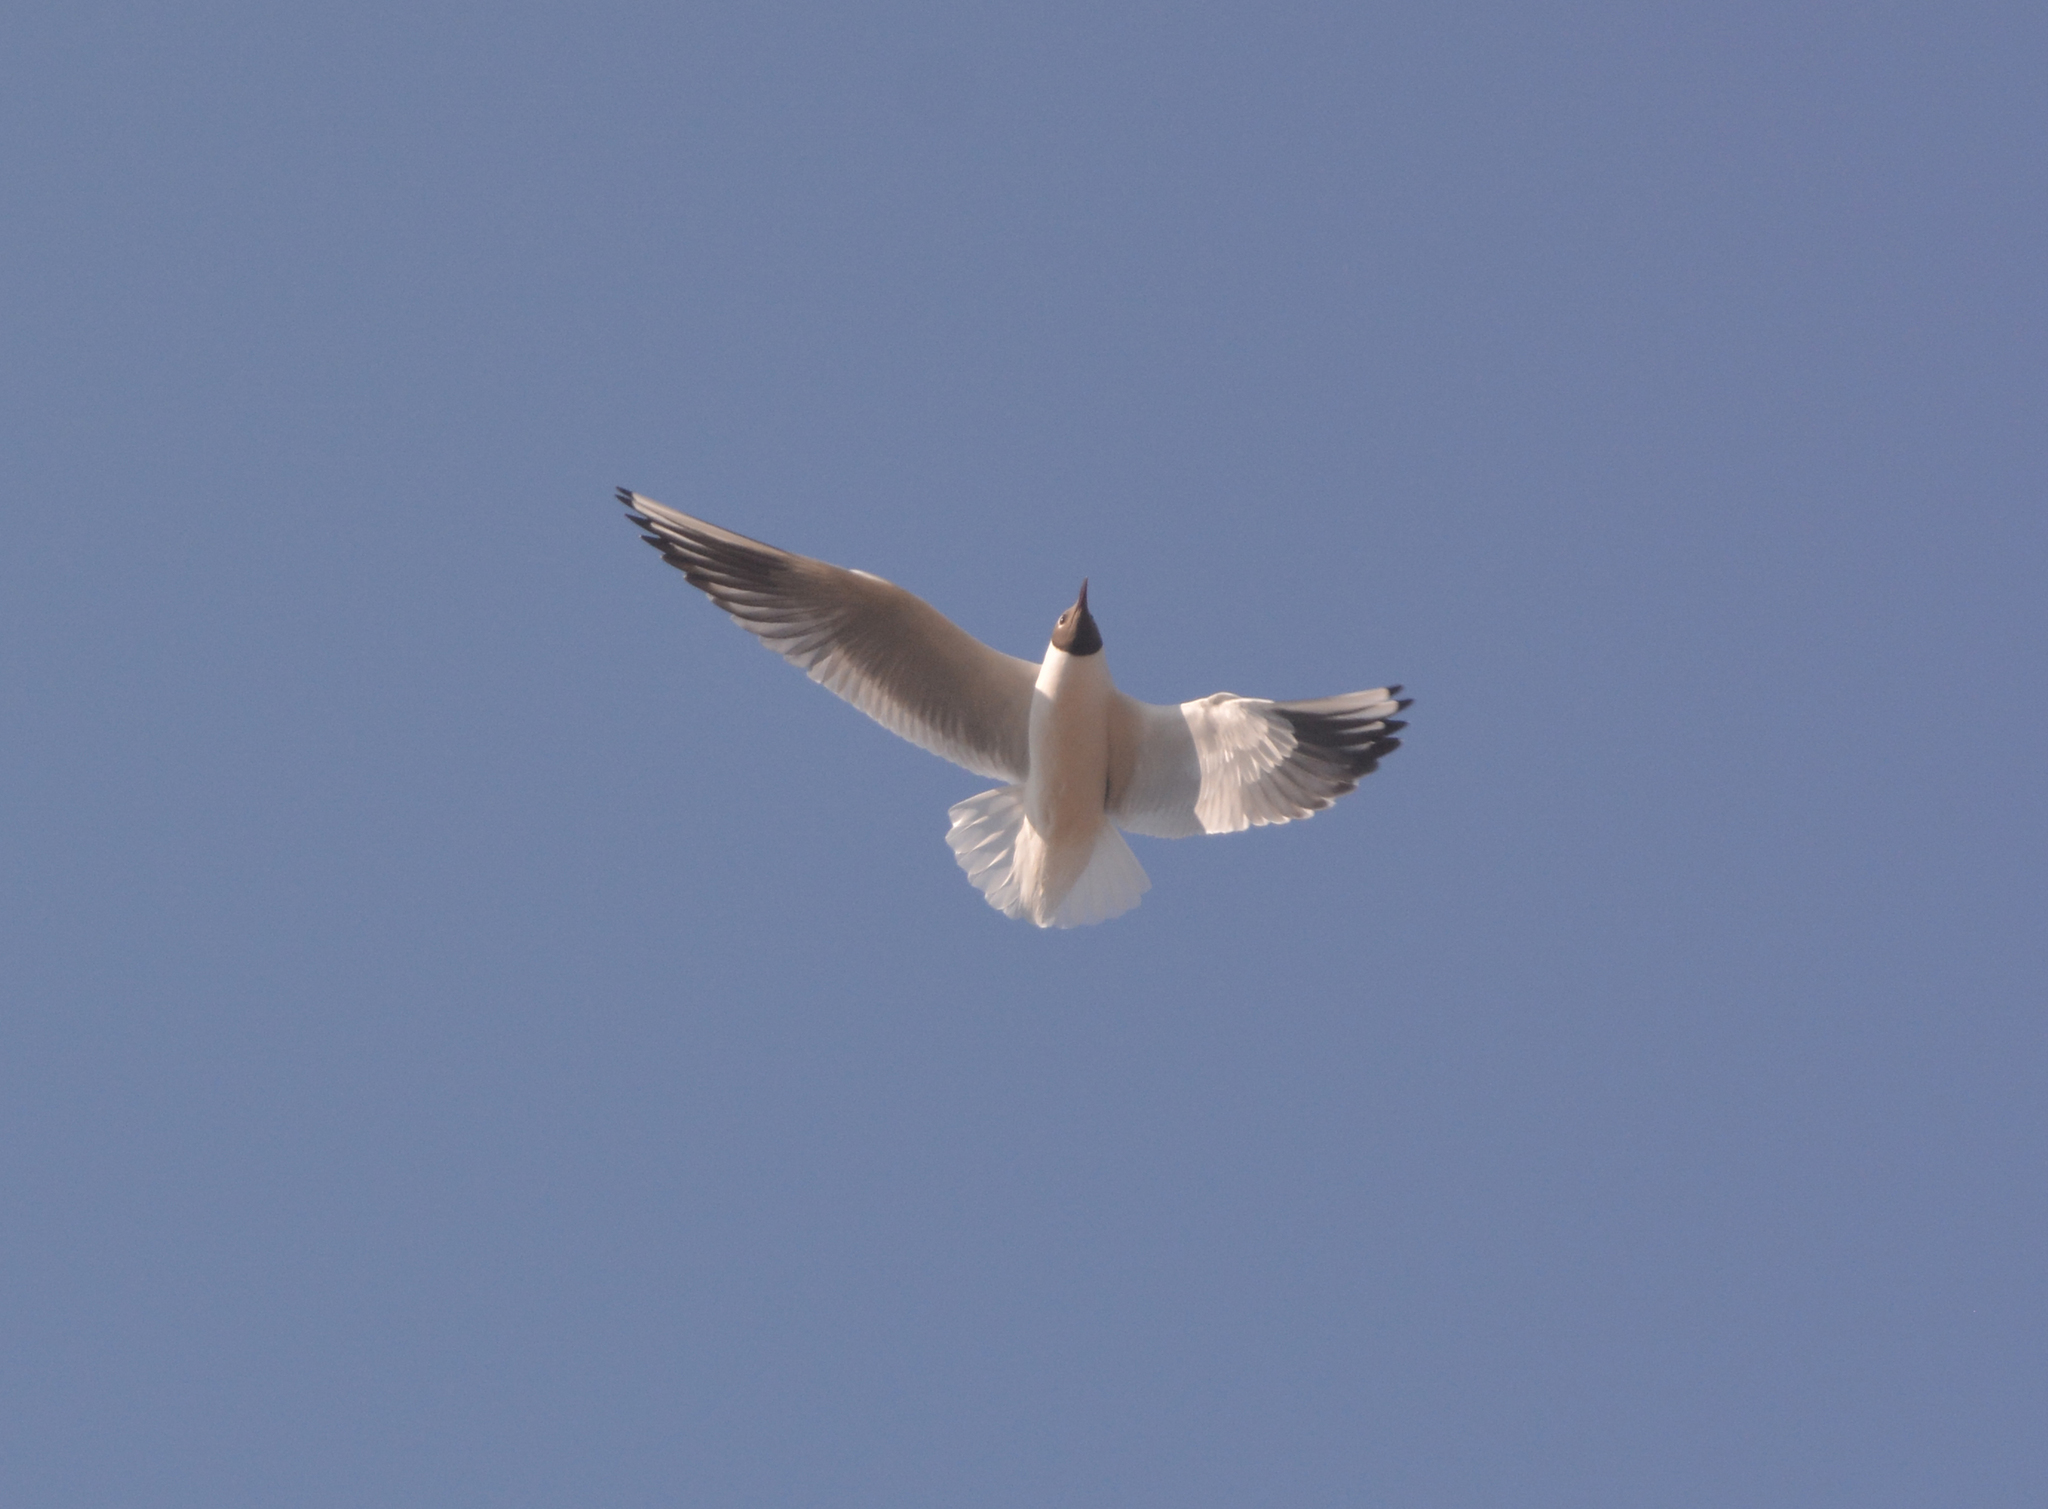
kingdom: Animalia
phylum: Chordata
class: Aves
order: Charadriiformes
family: Laridae
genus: Chroicocephalus
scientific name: Chroicocephalus ridibundus
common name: Black-headed gull
